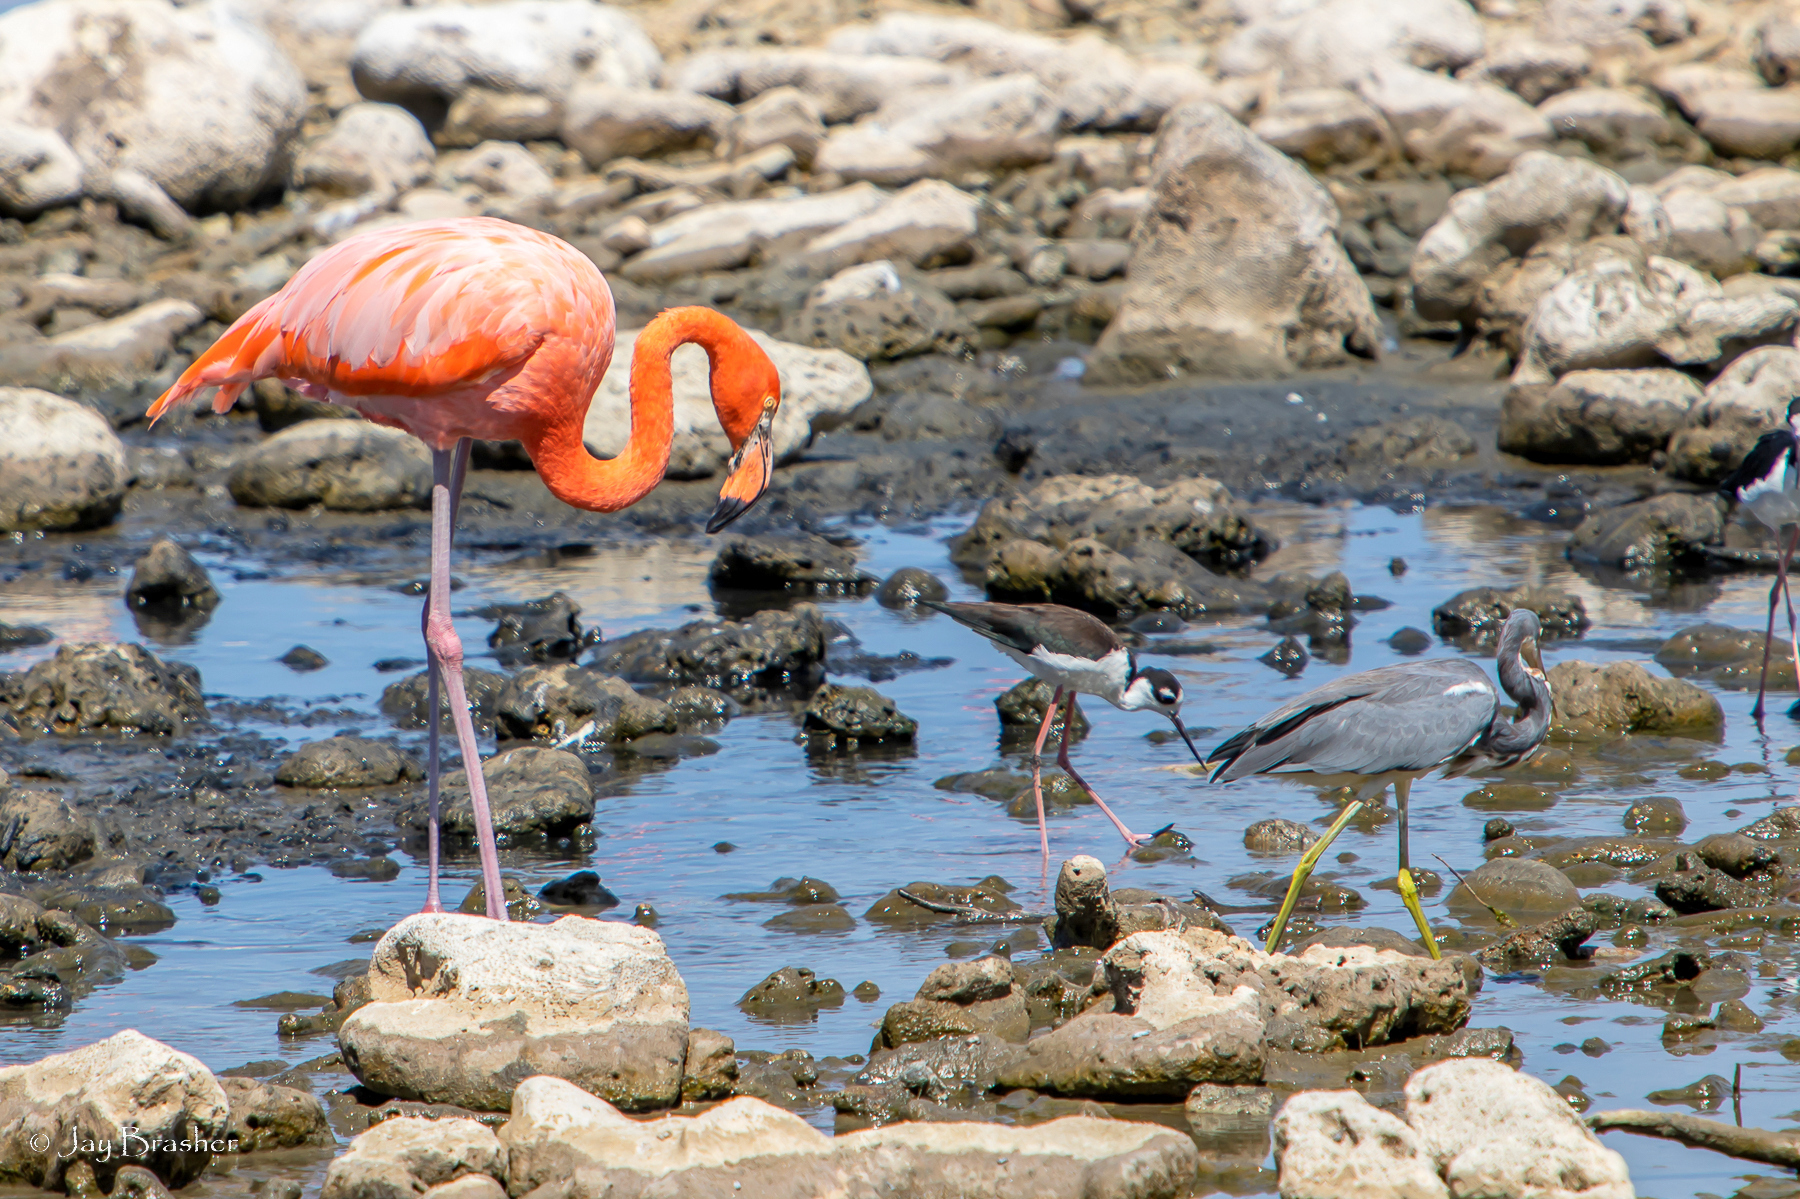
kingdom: Animalia
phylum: Chordata
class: Aves
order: Charadriiformes
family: Recurvirostridae
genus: Himantopus
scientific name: Himantopus mexicanus
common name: Black-necked stilt
